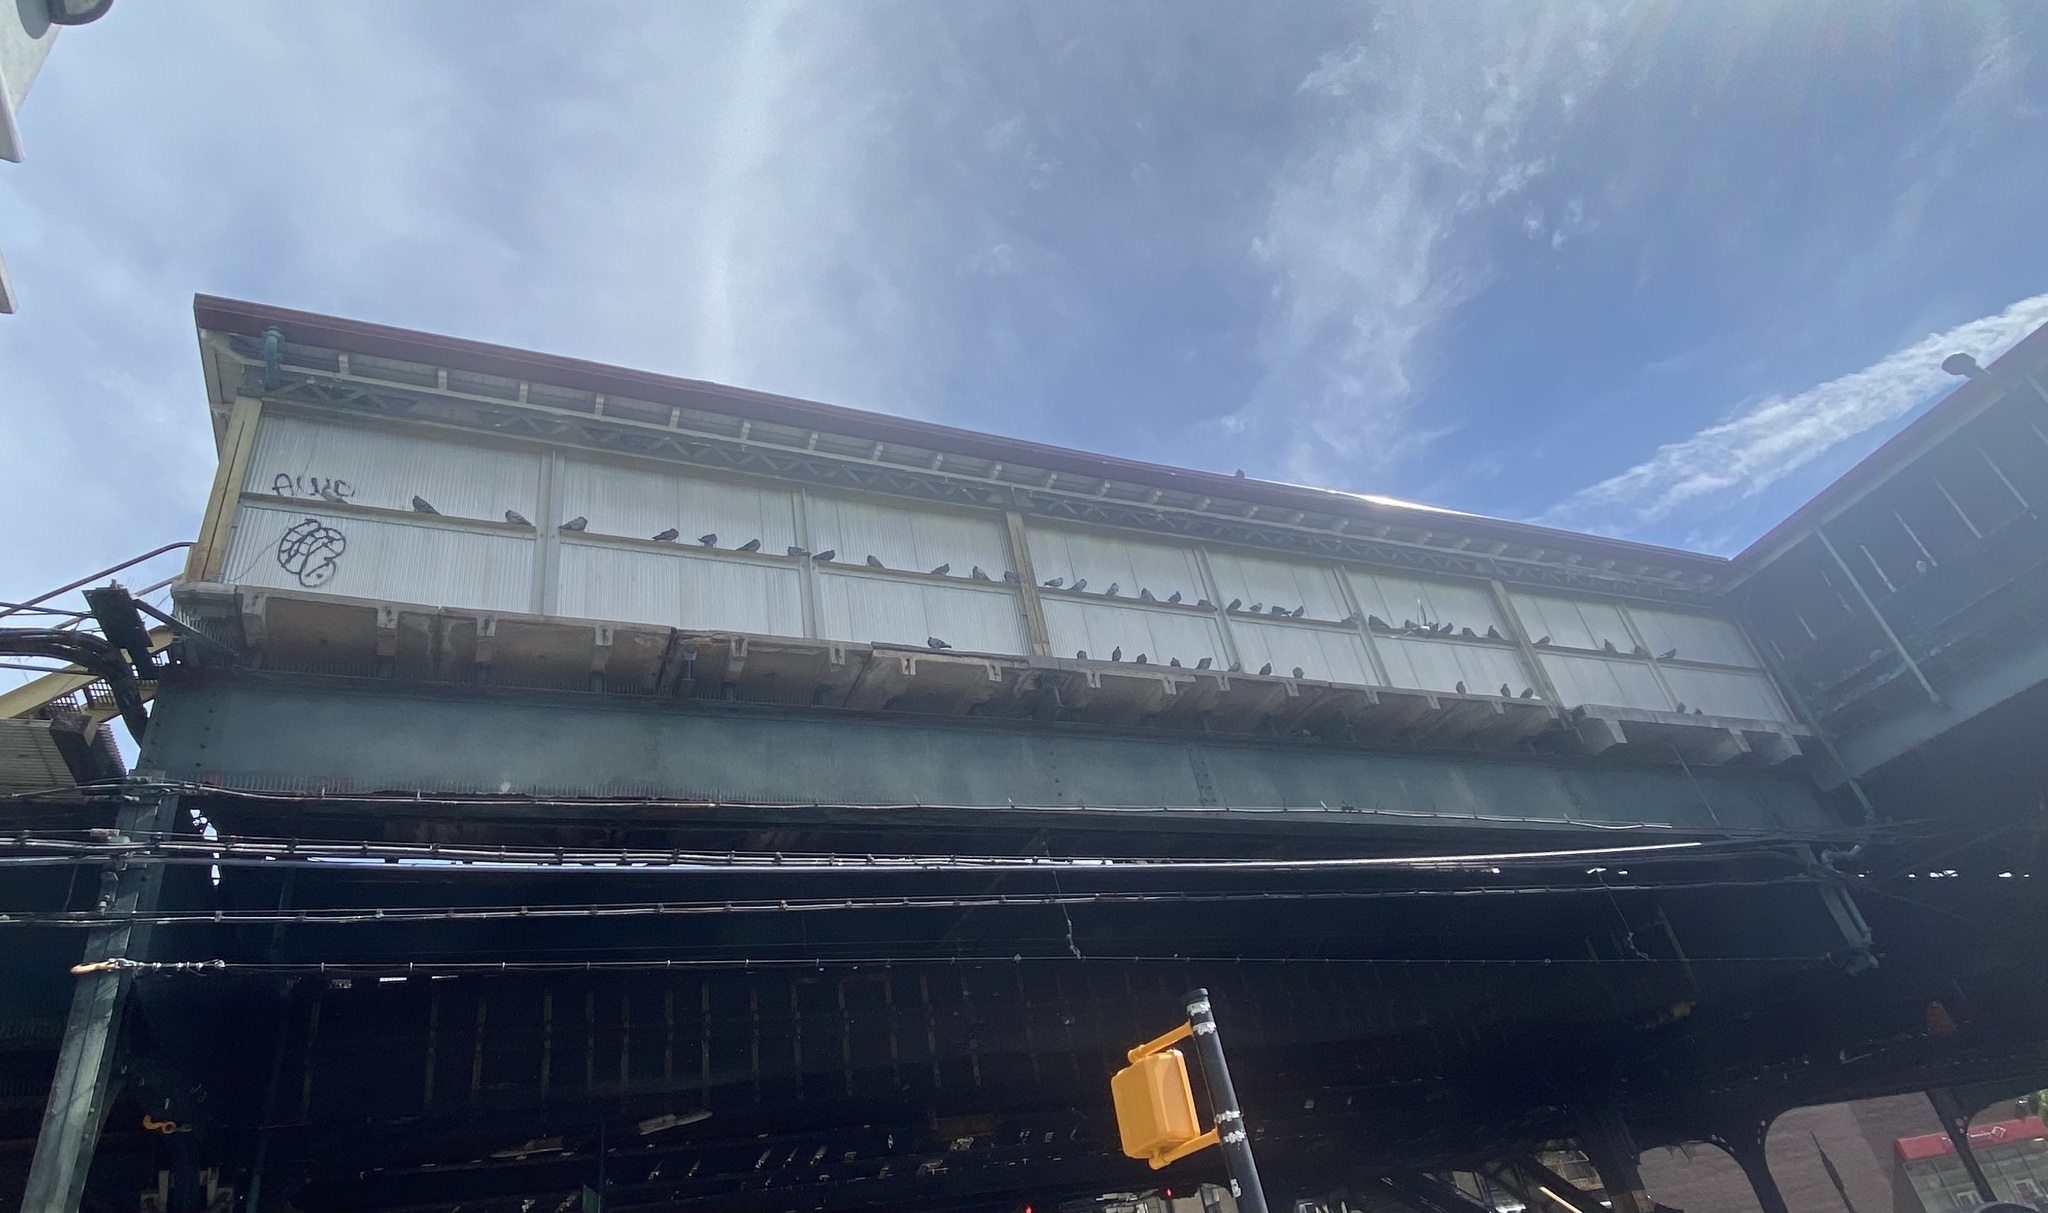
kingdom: Animalia
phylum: Chordata
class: Aves
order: Columbiformes
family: Columbidae
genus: Columba
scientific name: Columba livia
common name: Rock pigeon
